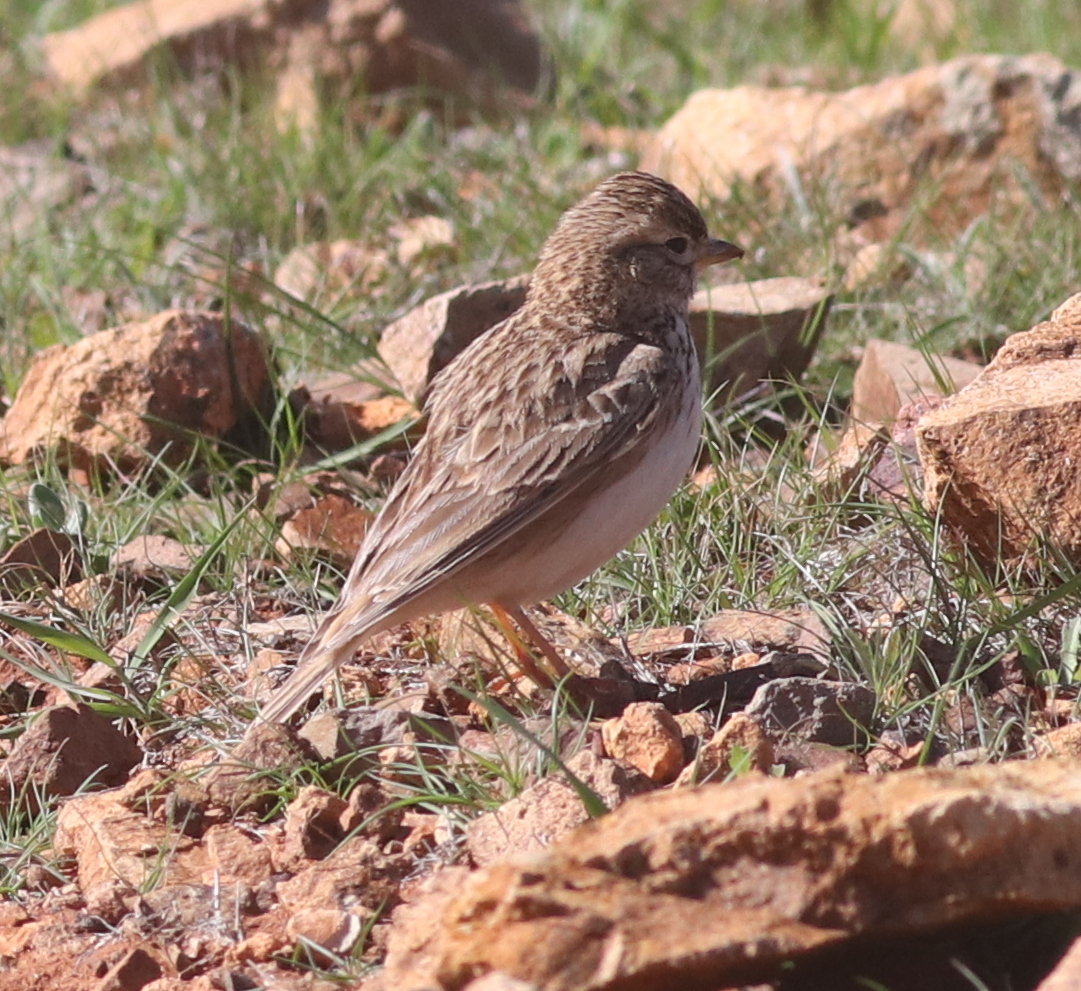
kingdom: Animalia
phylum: Chordata
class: Aves
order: Passeriformes
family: Alaudidae
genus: Calandrella
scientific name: Calandrella rufescens
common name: Lesser short-toed lark
